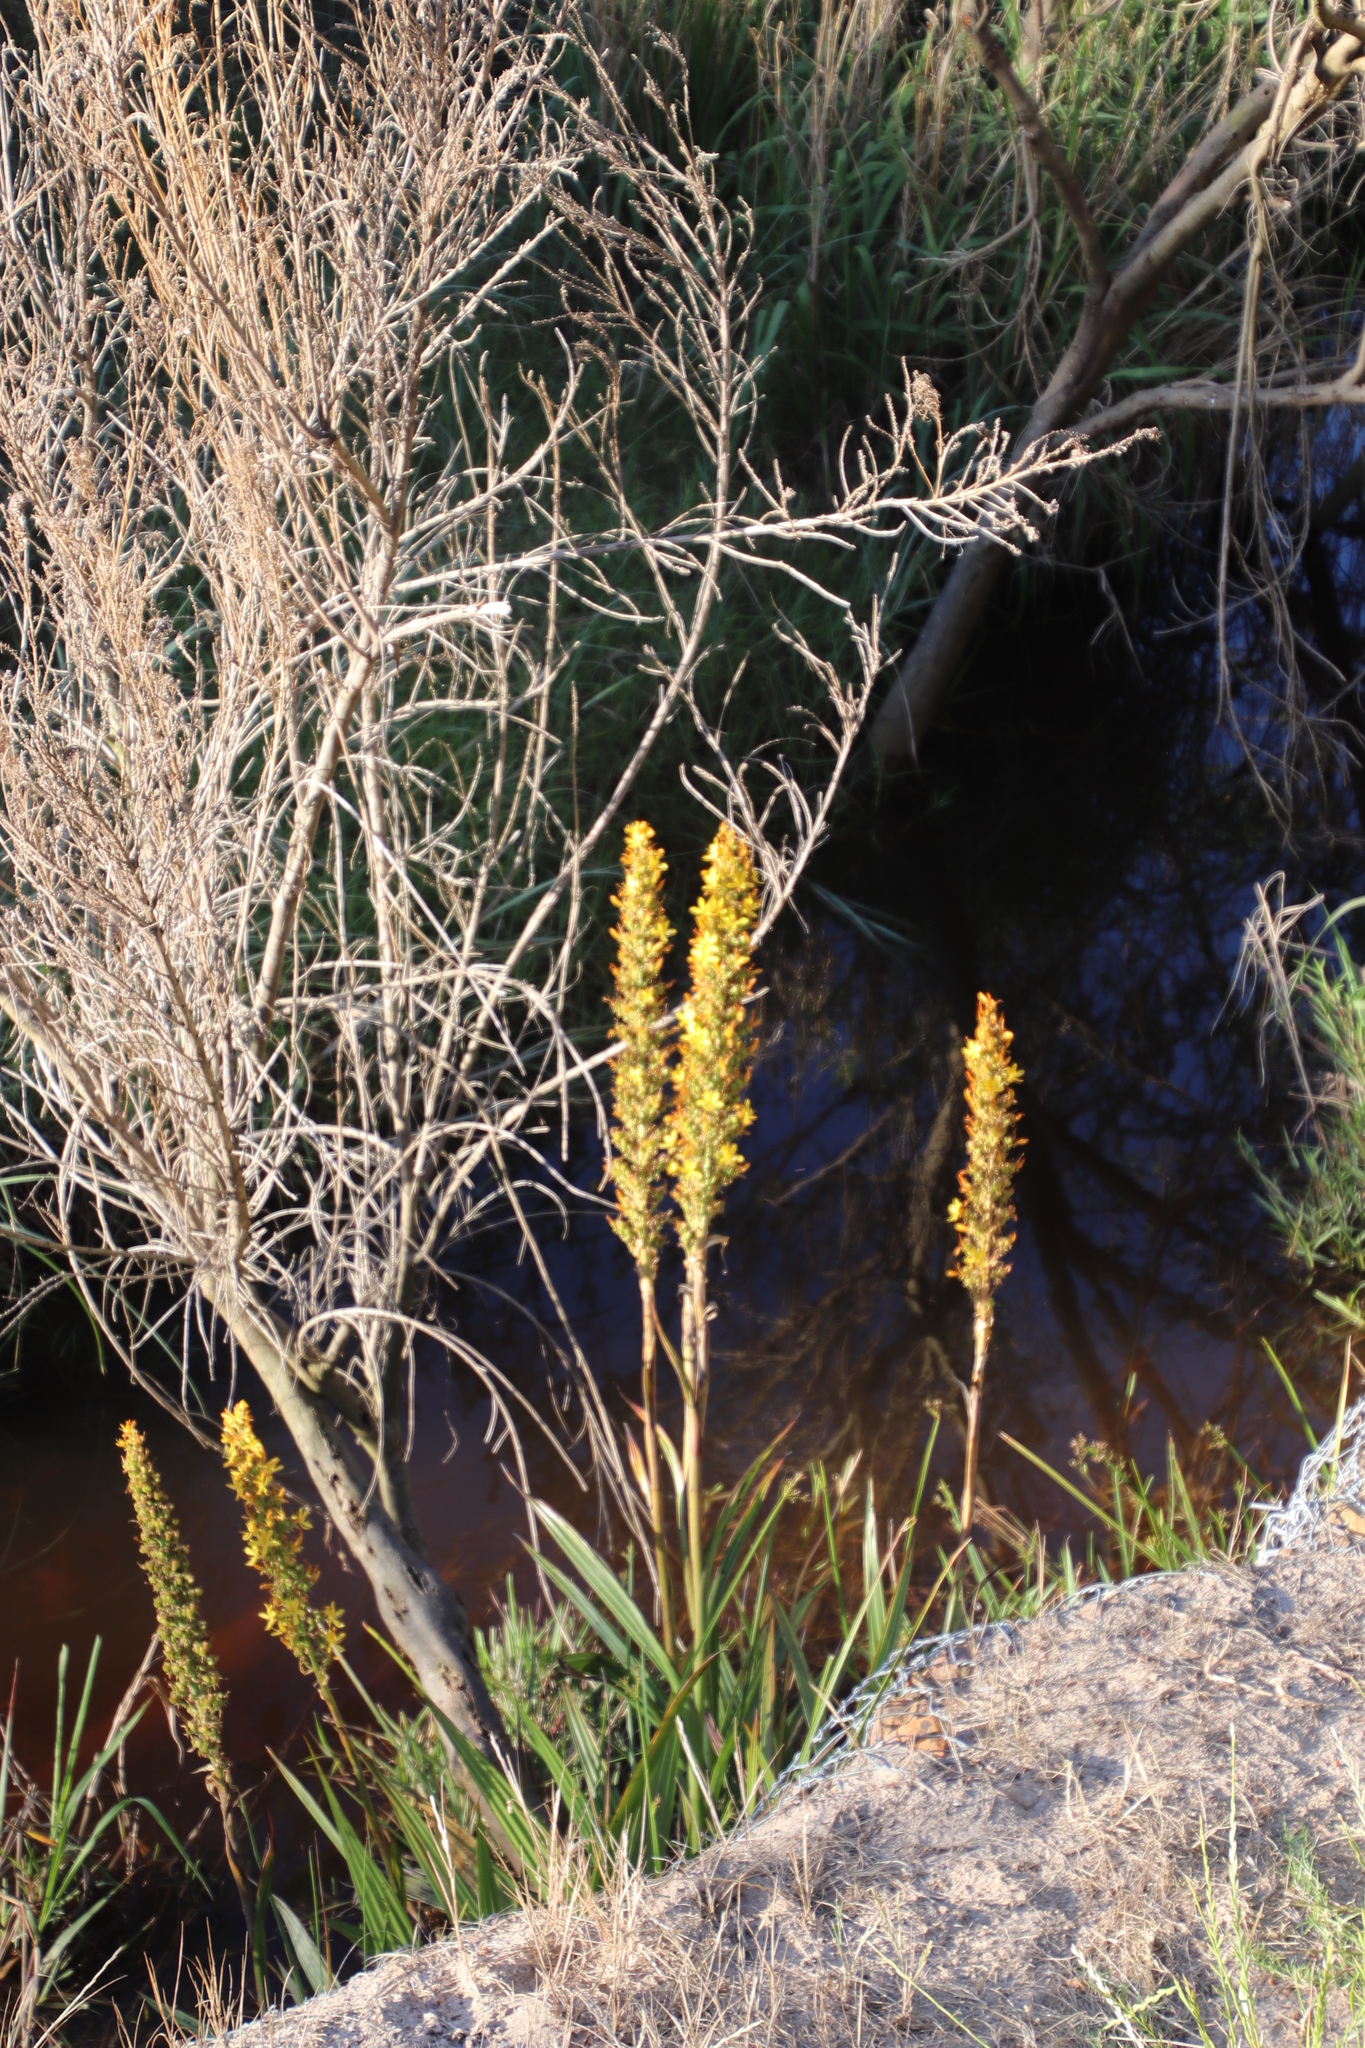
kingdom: Plantae
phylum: Tracheophyta
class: Liliopsida
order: Commelinales
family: Haemodoraceae
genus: Wachendorfia
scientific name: Wachendorfia thyrsiflora
